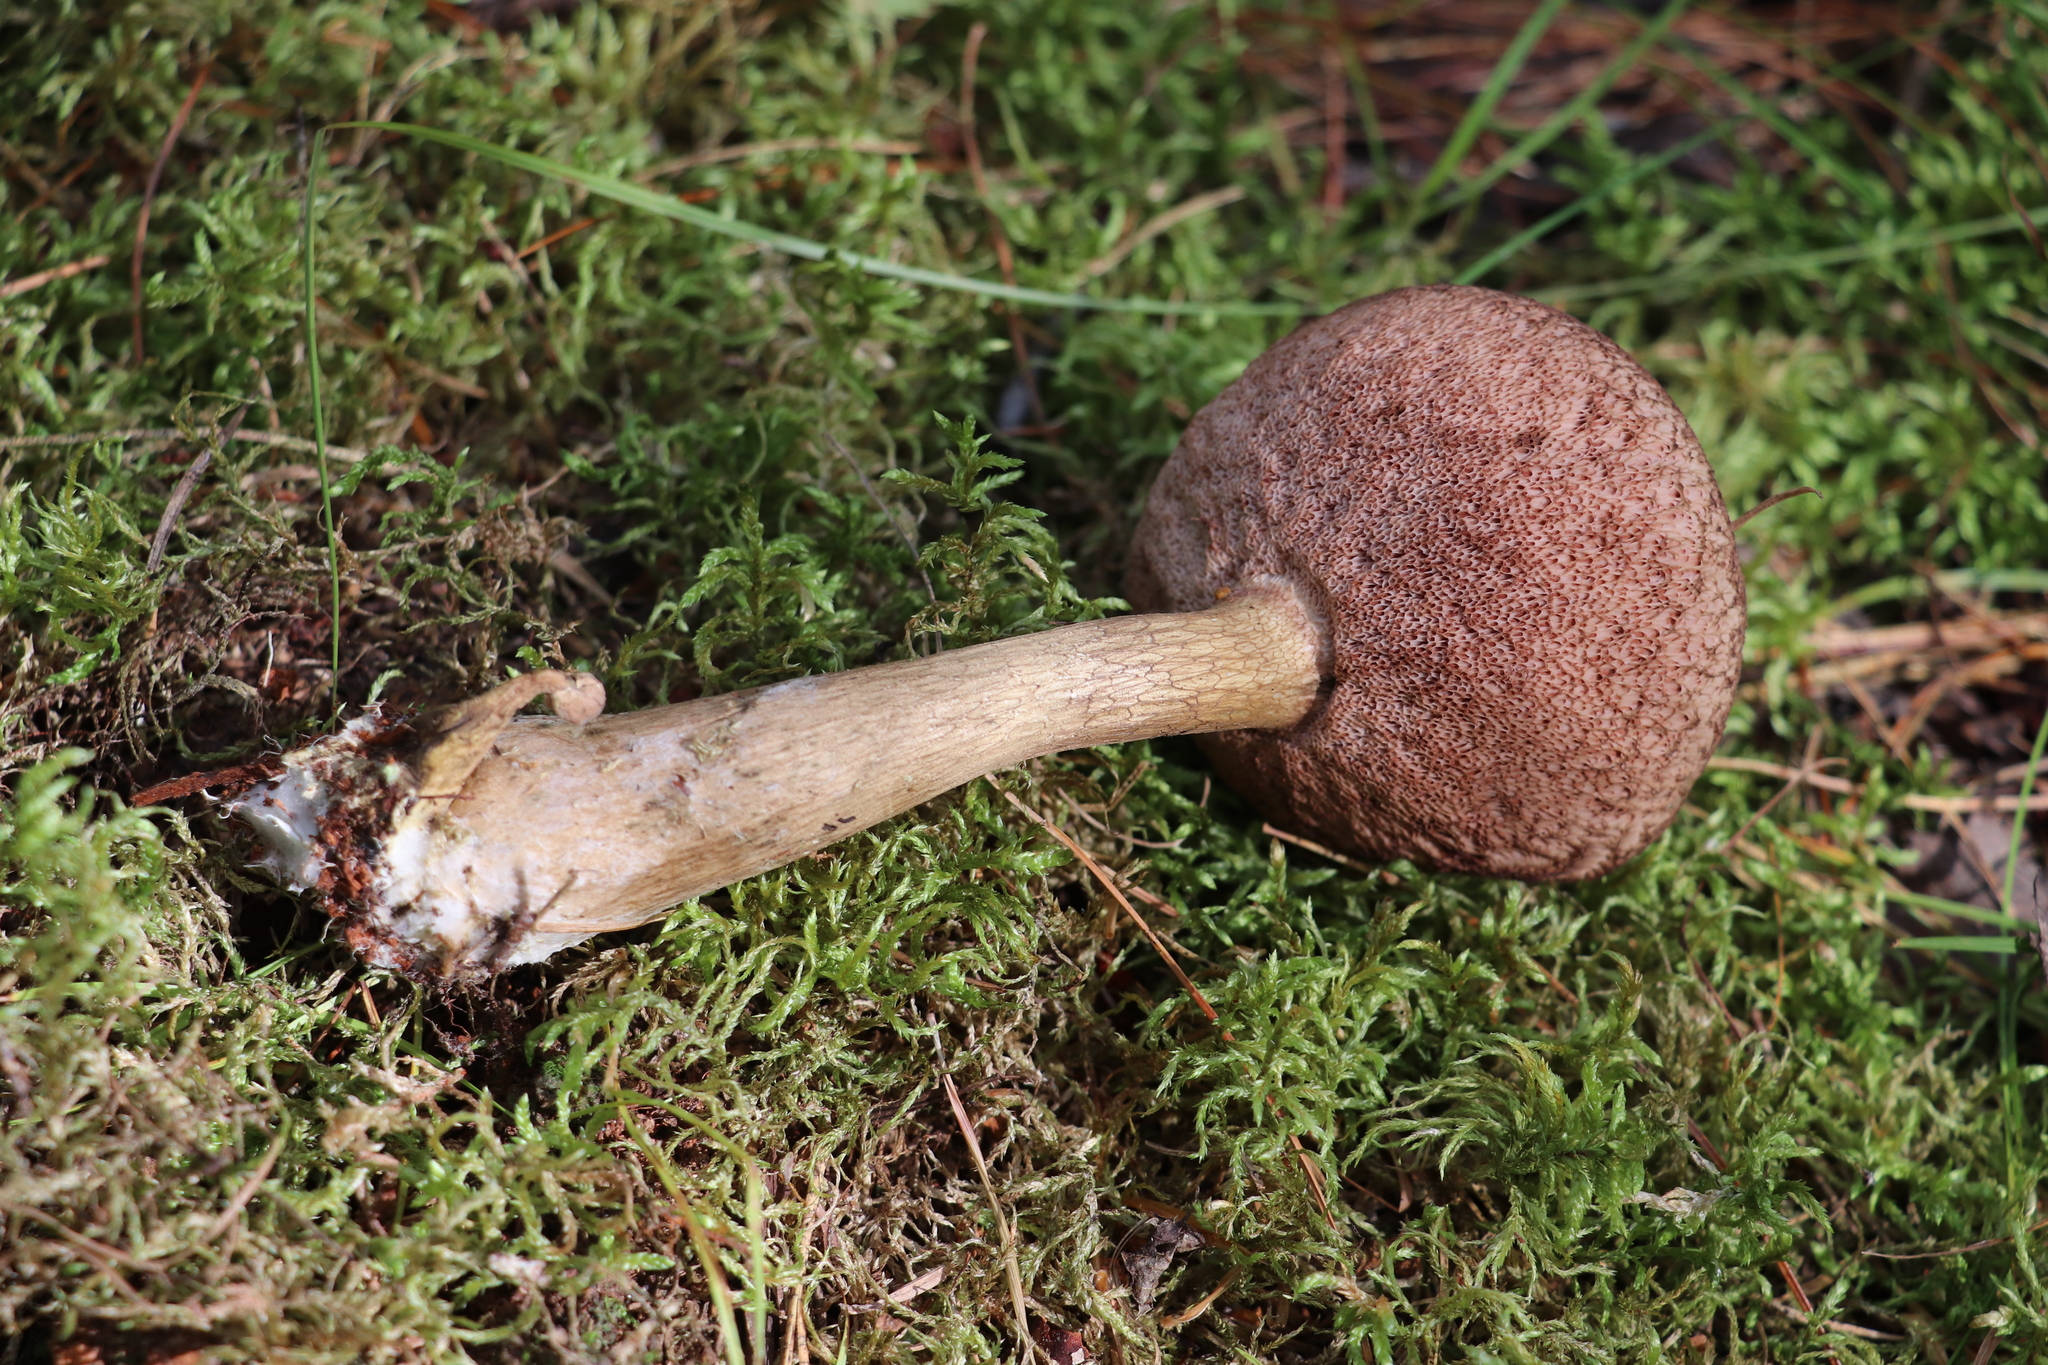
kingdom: Fungi
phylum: Basidiomycota
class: Agaricomycetes
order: Boletales
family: Boletaceae
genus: Tylopilus
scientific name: Tylopilus felleus
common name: Bitter bolete
